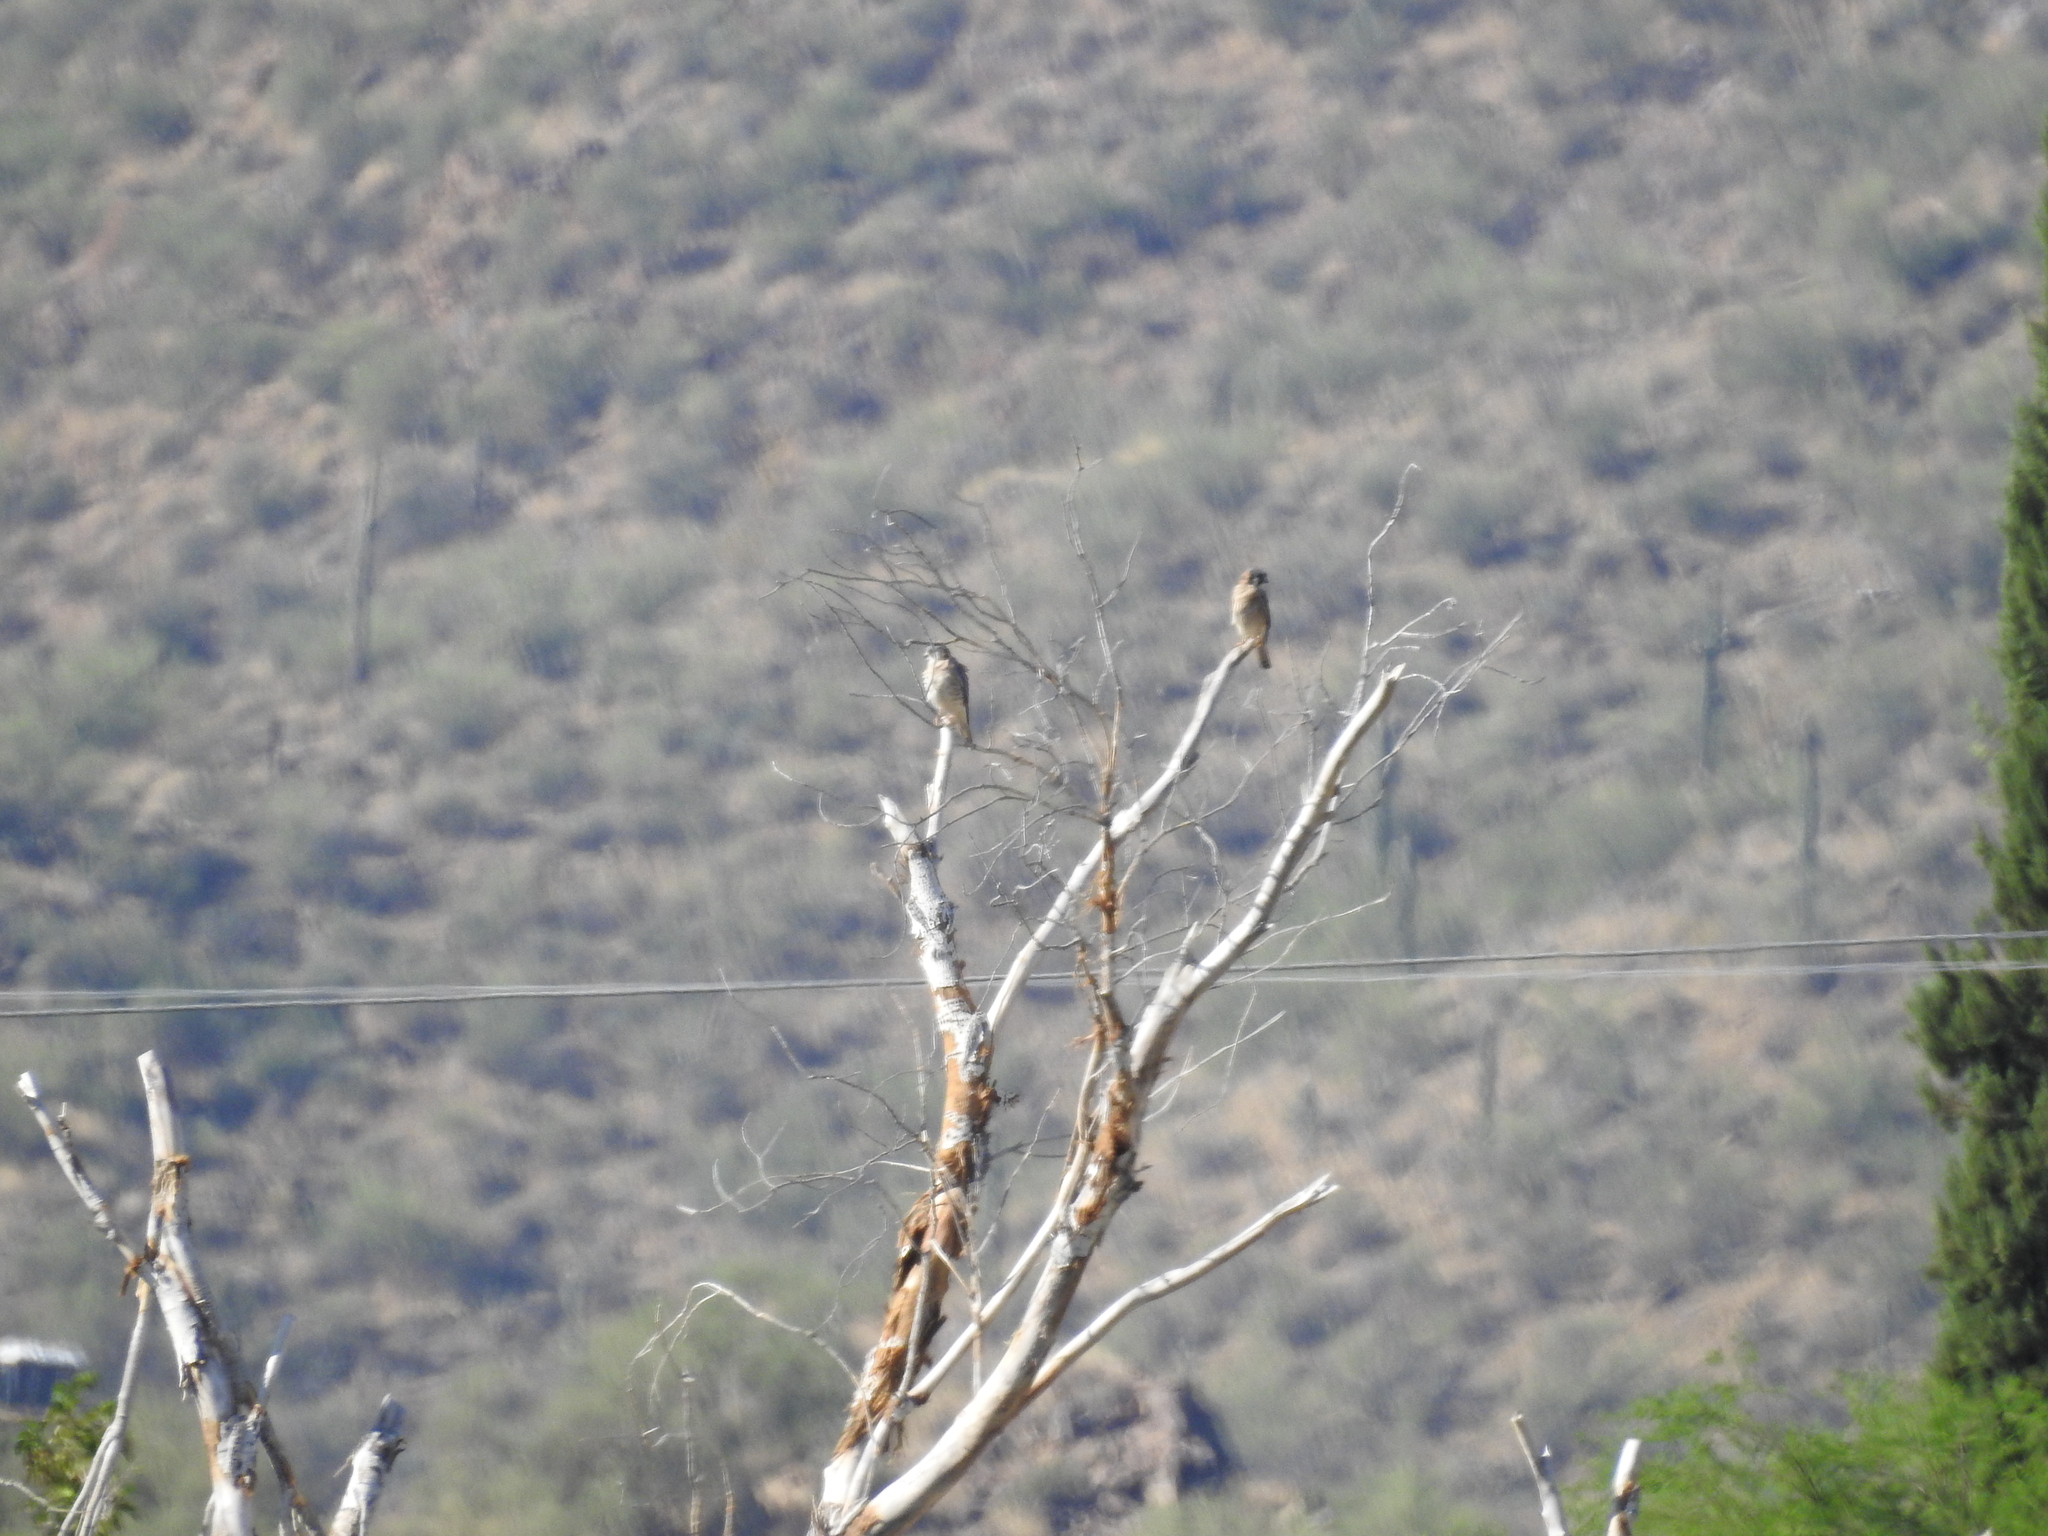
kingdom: Animalia
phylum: Chordata
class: Aves
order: Falconiformes
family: Falconidae
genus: Falco
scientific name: Falco sparverius
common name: American kestrel
